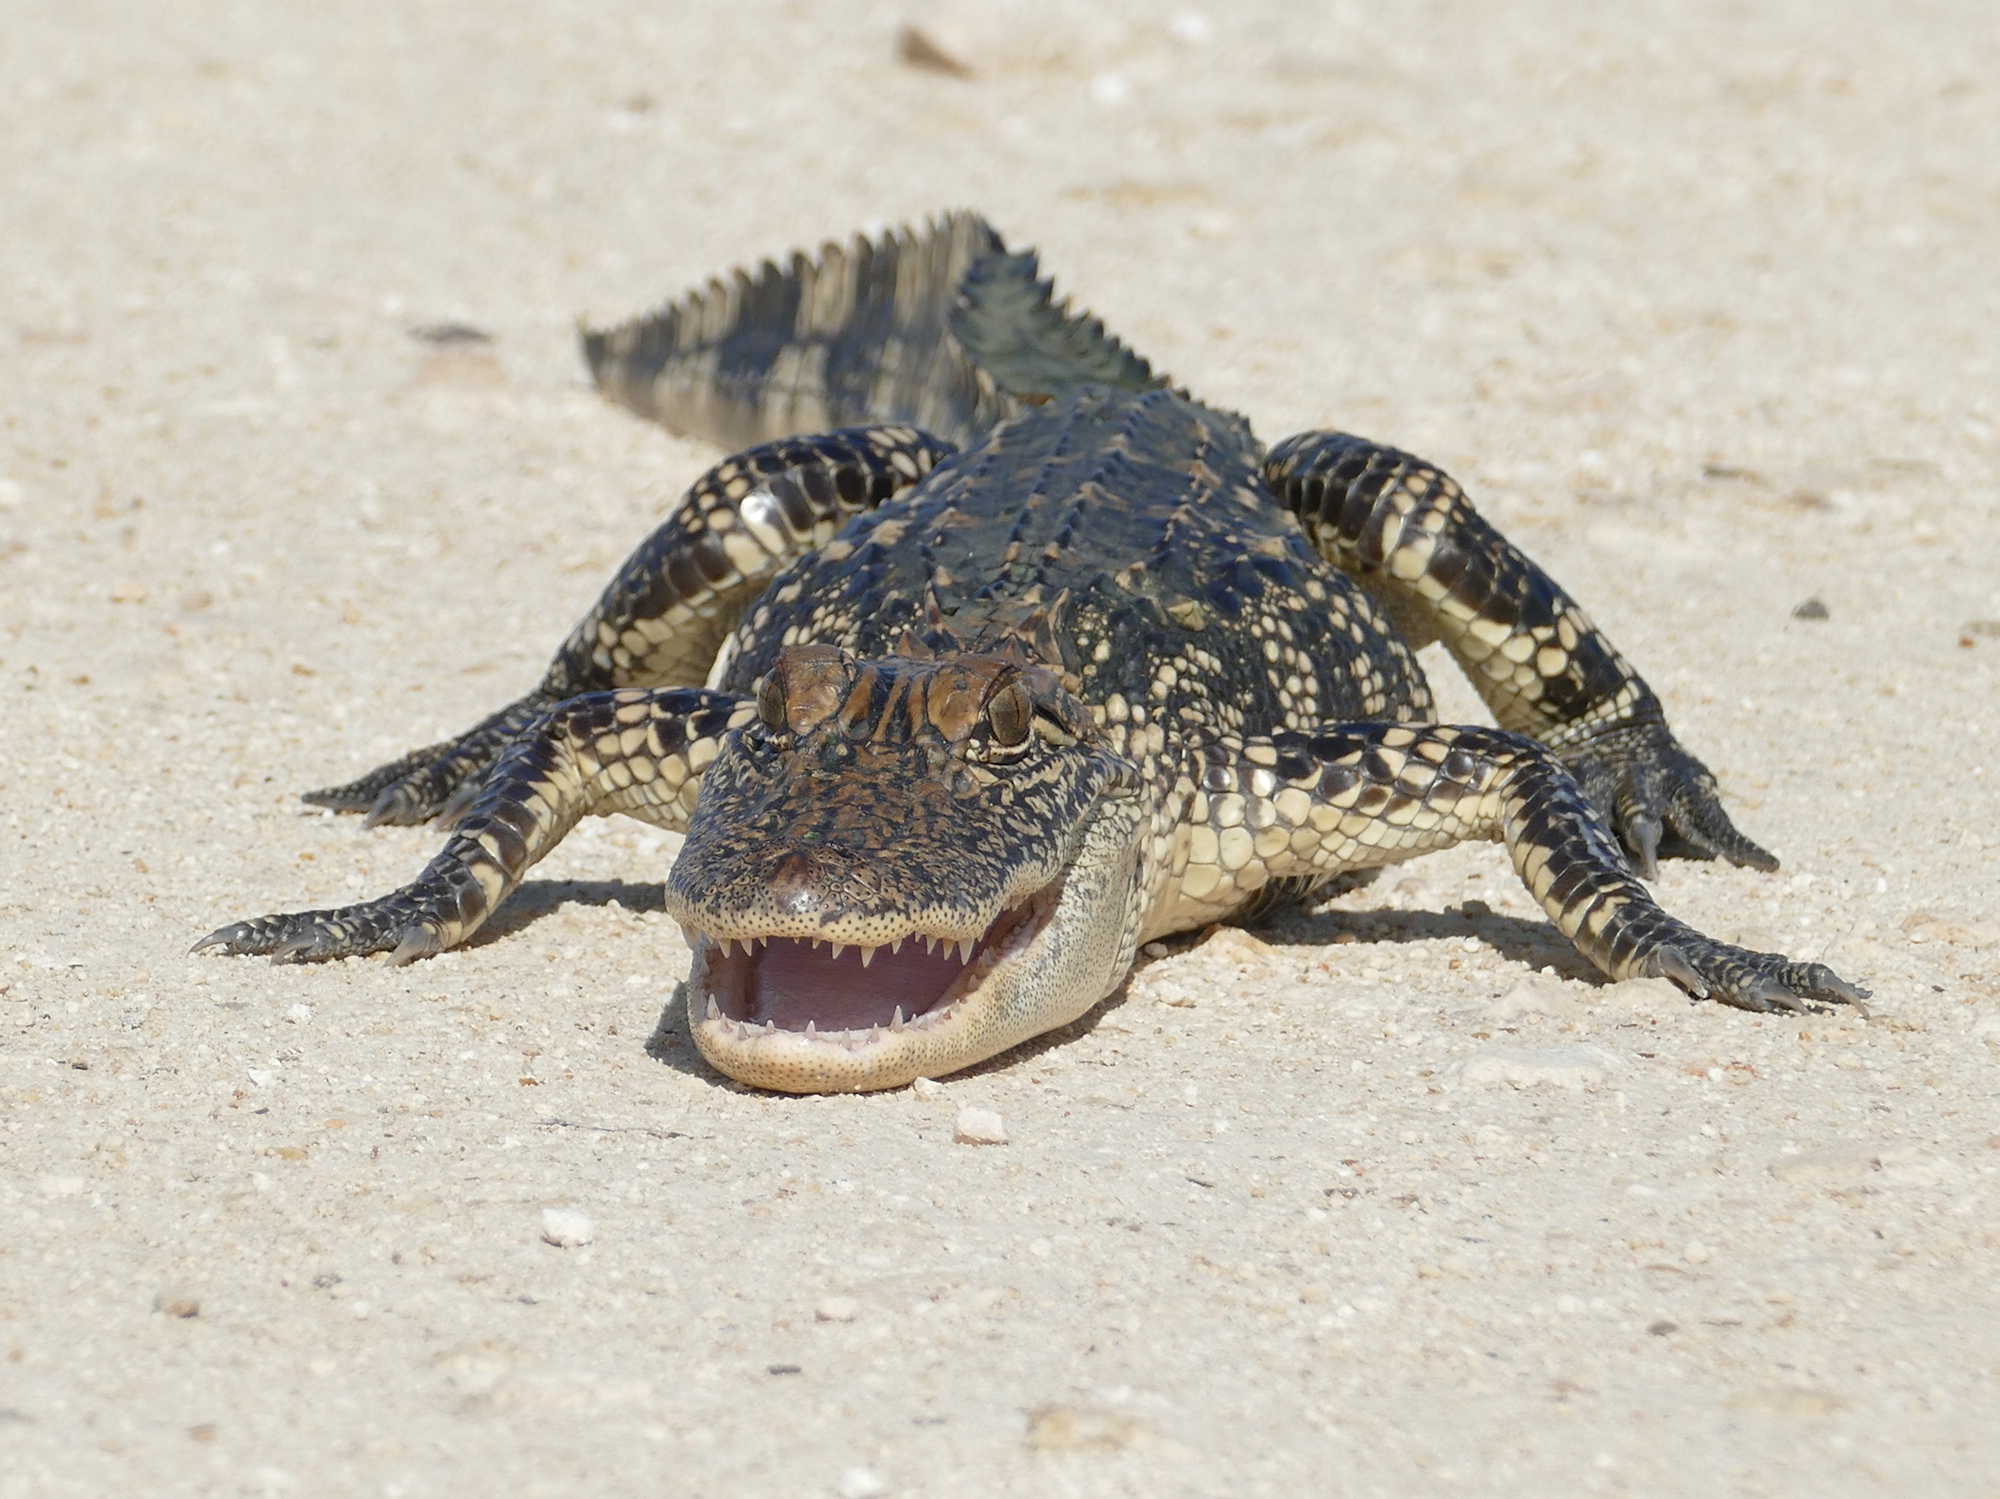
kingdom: Animalia
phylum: Chordata
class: Crocodylia
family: Alligatoridae
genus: Alligator
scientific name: Alligator mississippiensis
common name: American alligator
